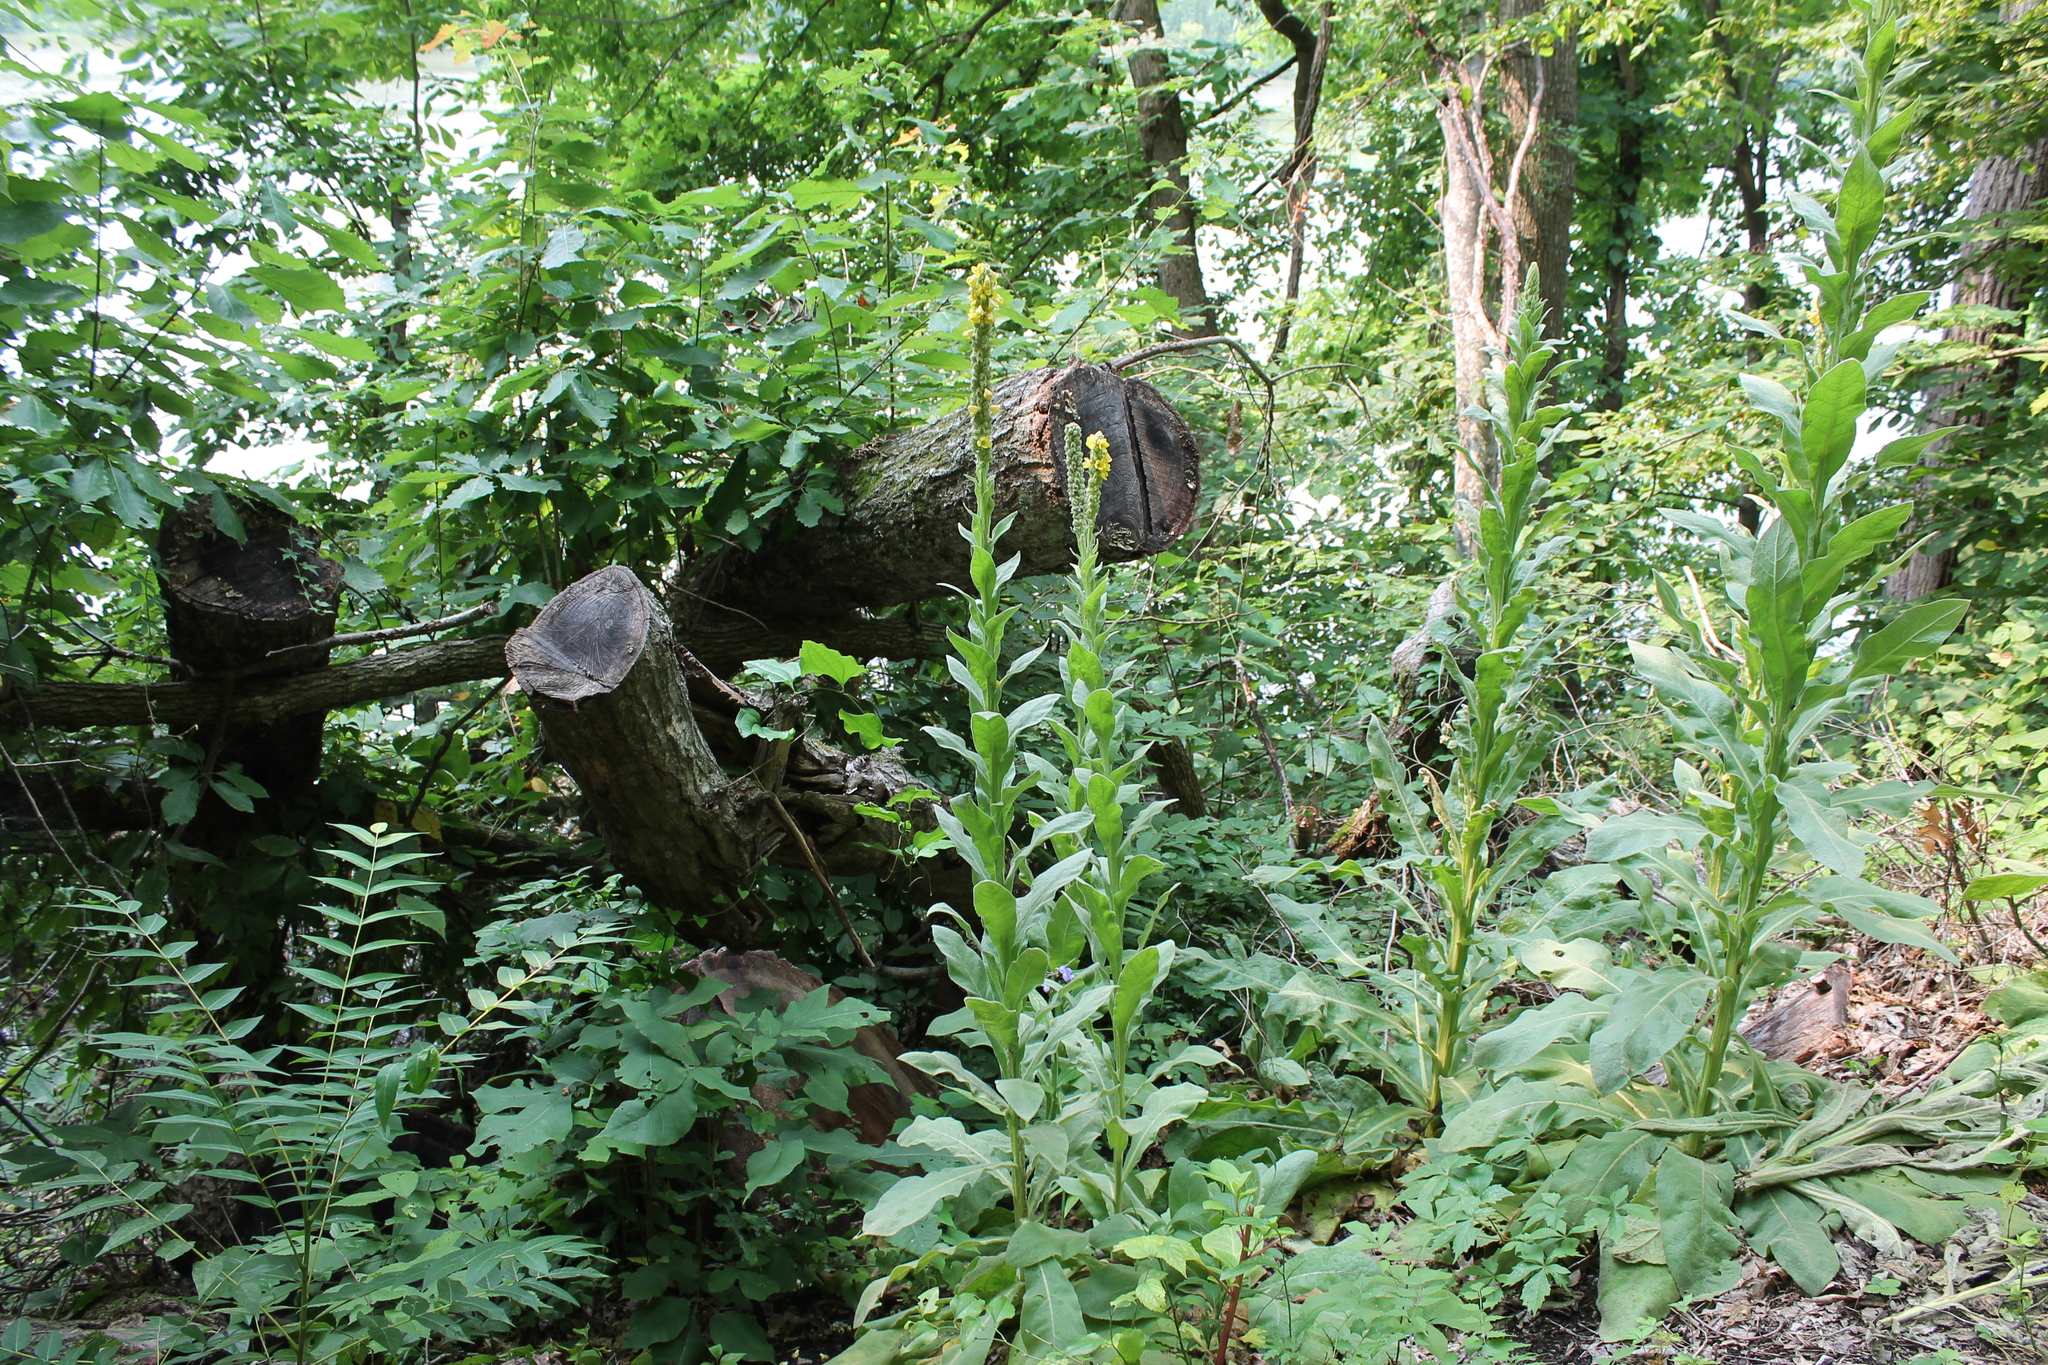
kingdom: Plantae
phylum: Tracheophyta
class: Magnoliopsida
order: Lamiales
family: Scrophulariaceae
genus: Verbascum
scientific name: Verbascum thapsus
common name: Common mullein
